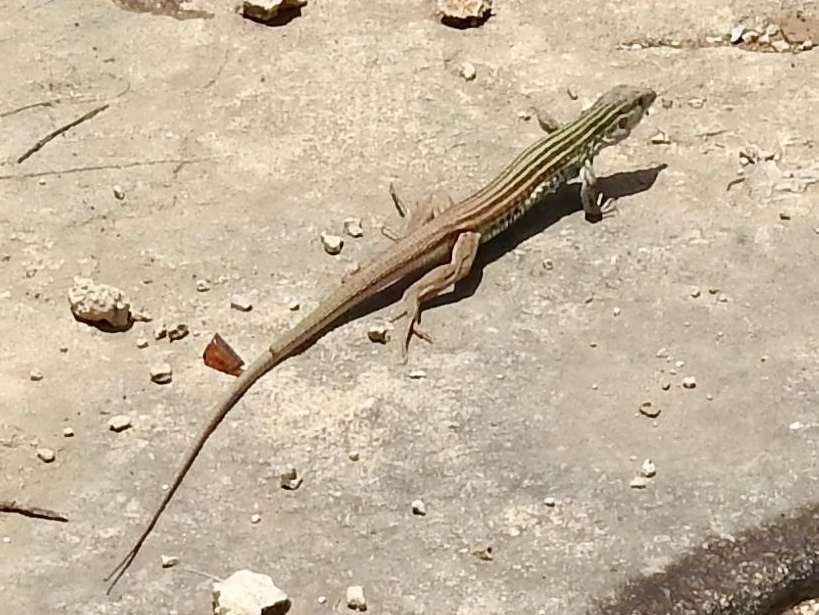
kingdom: Animalia
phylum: Chordata
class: Squamata
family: Teiidae
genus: Aspidoscelis
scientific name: Aspidoscelis gularis
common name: Eastern spotted whiptail
